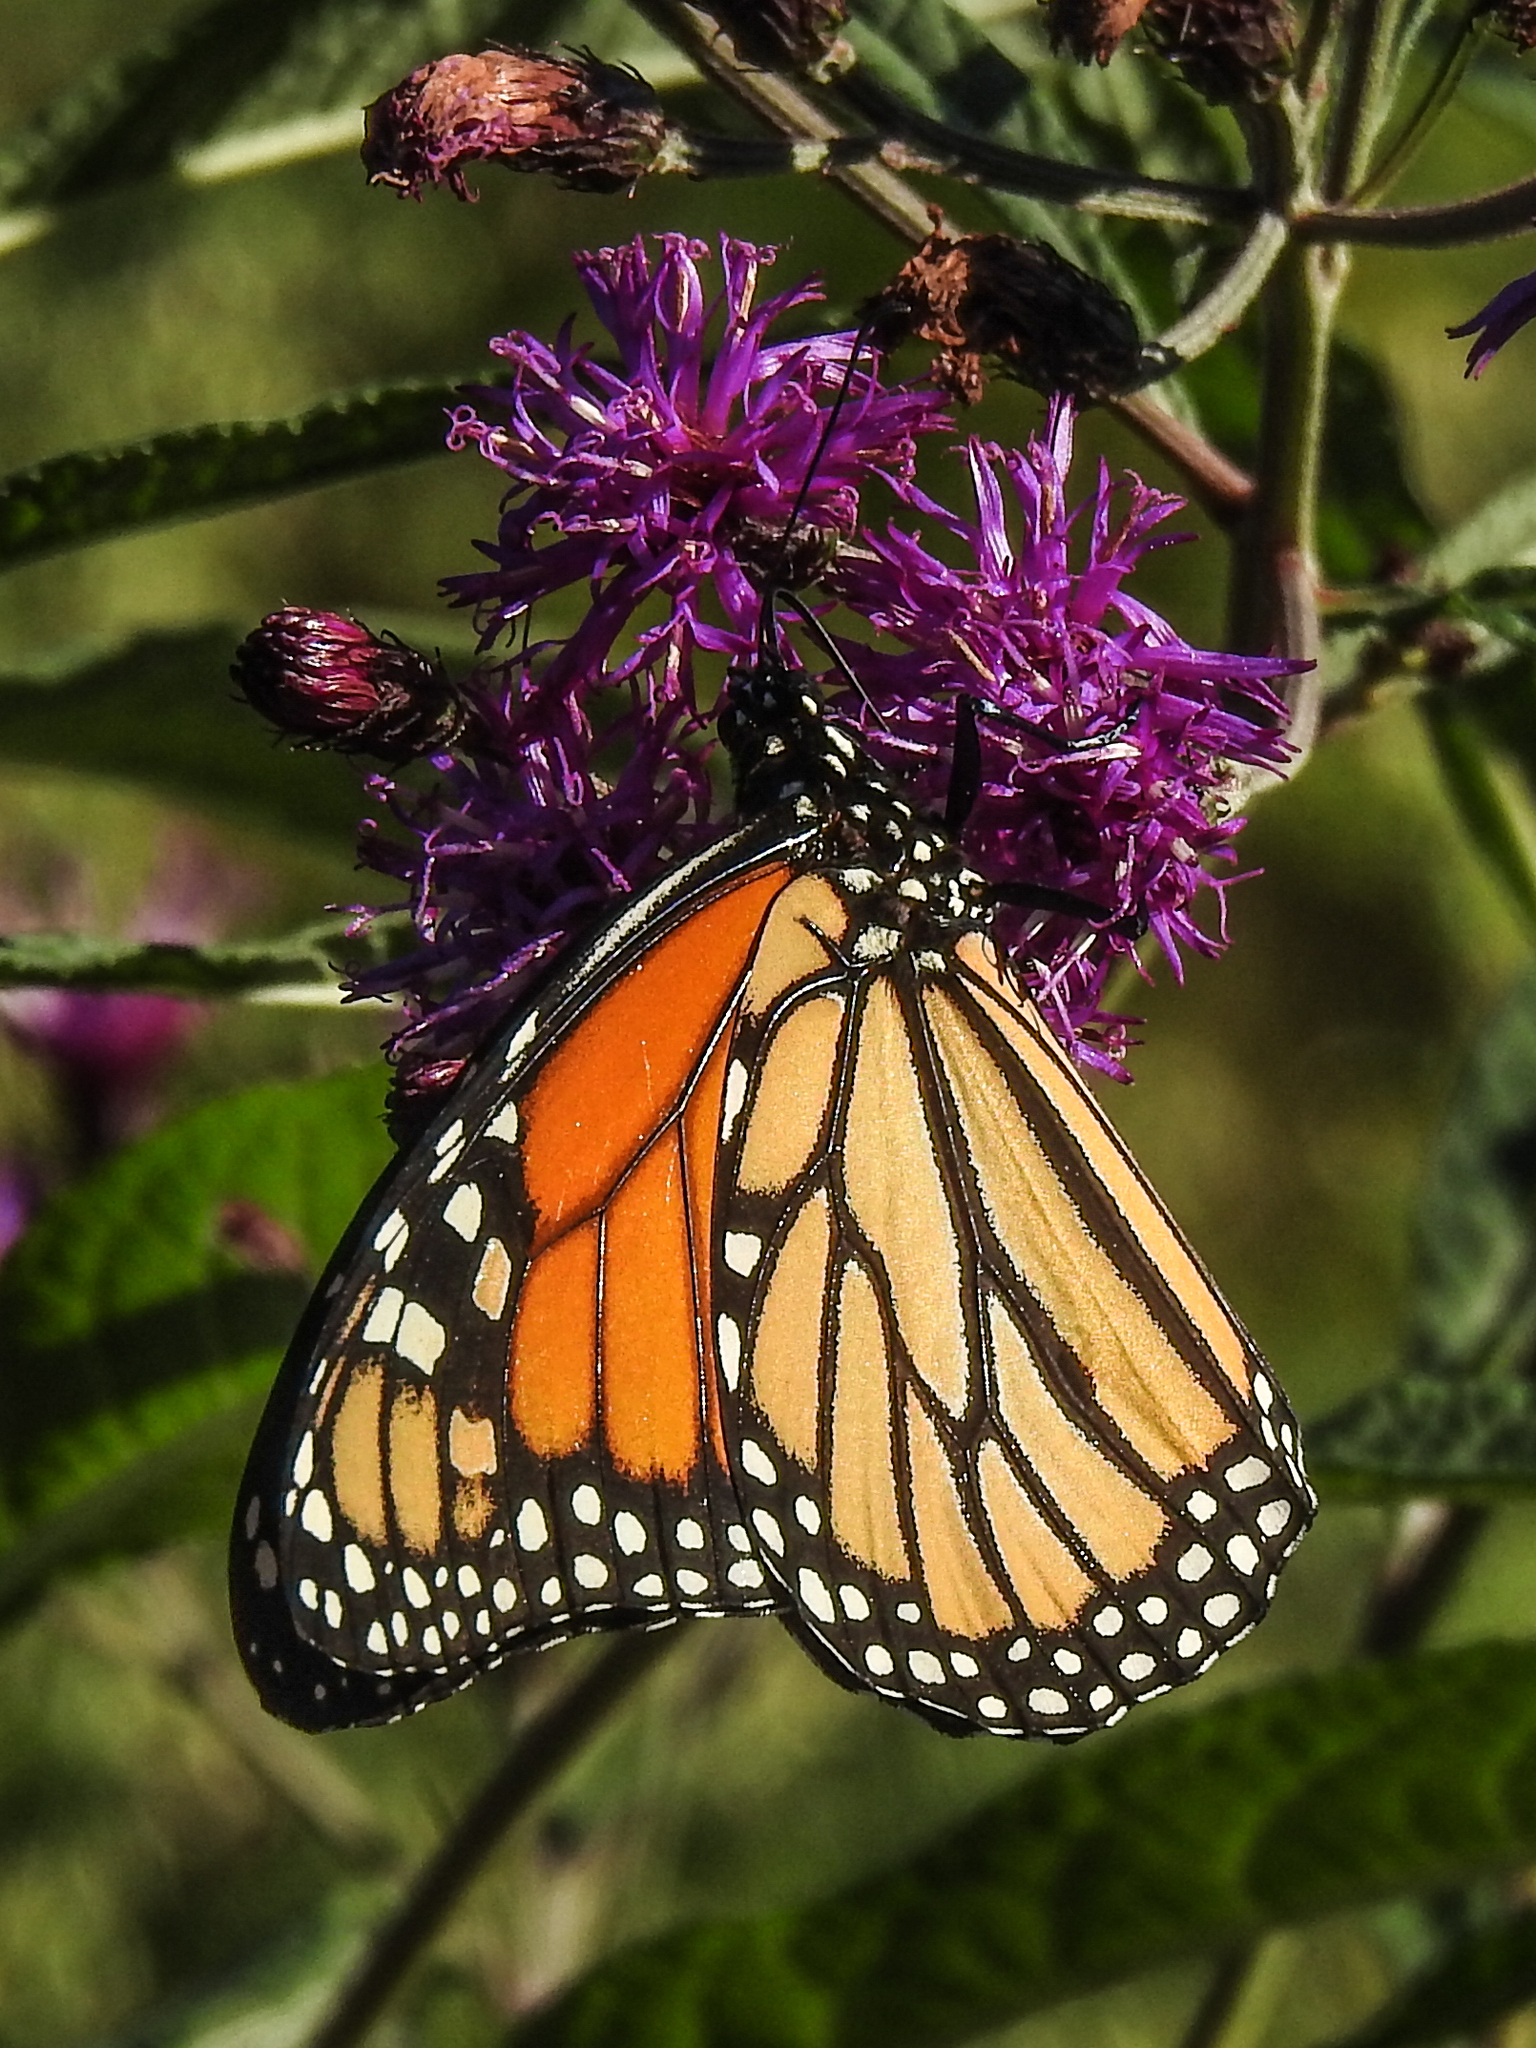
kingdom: Animalia
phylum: Arthropoda
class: Insecta
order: Lepidoptera
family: Nymphalidae
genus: Danaus
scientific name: Danaus plexippus
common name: Monarch
